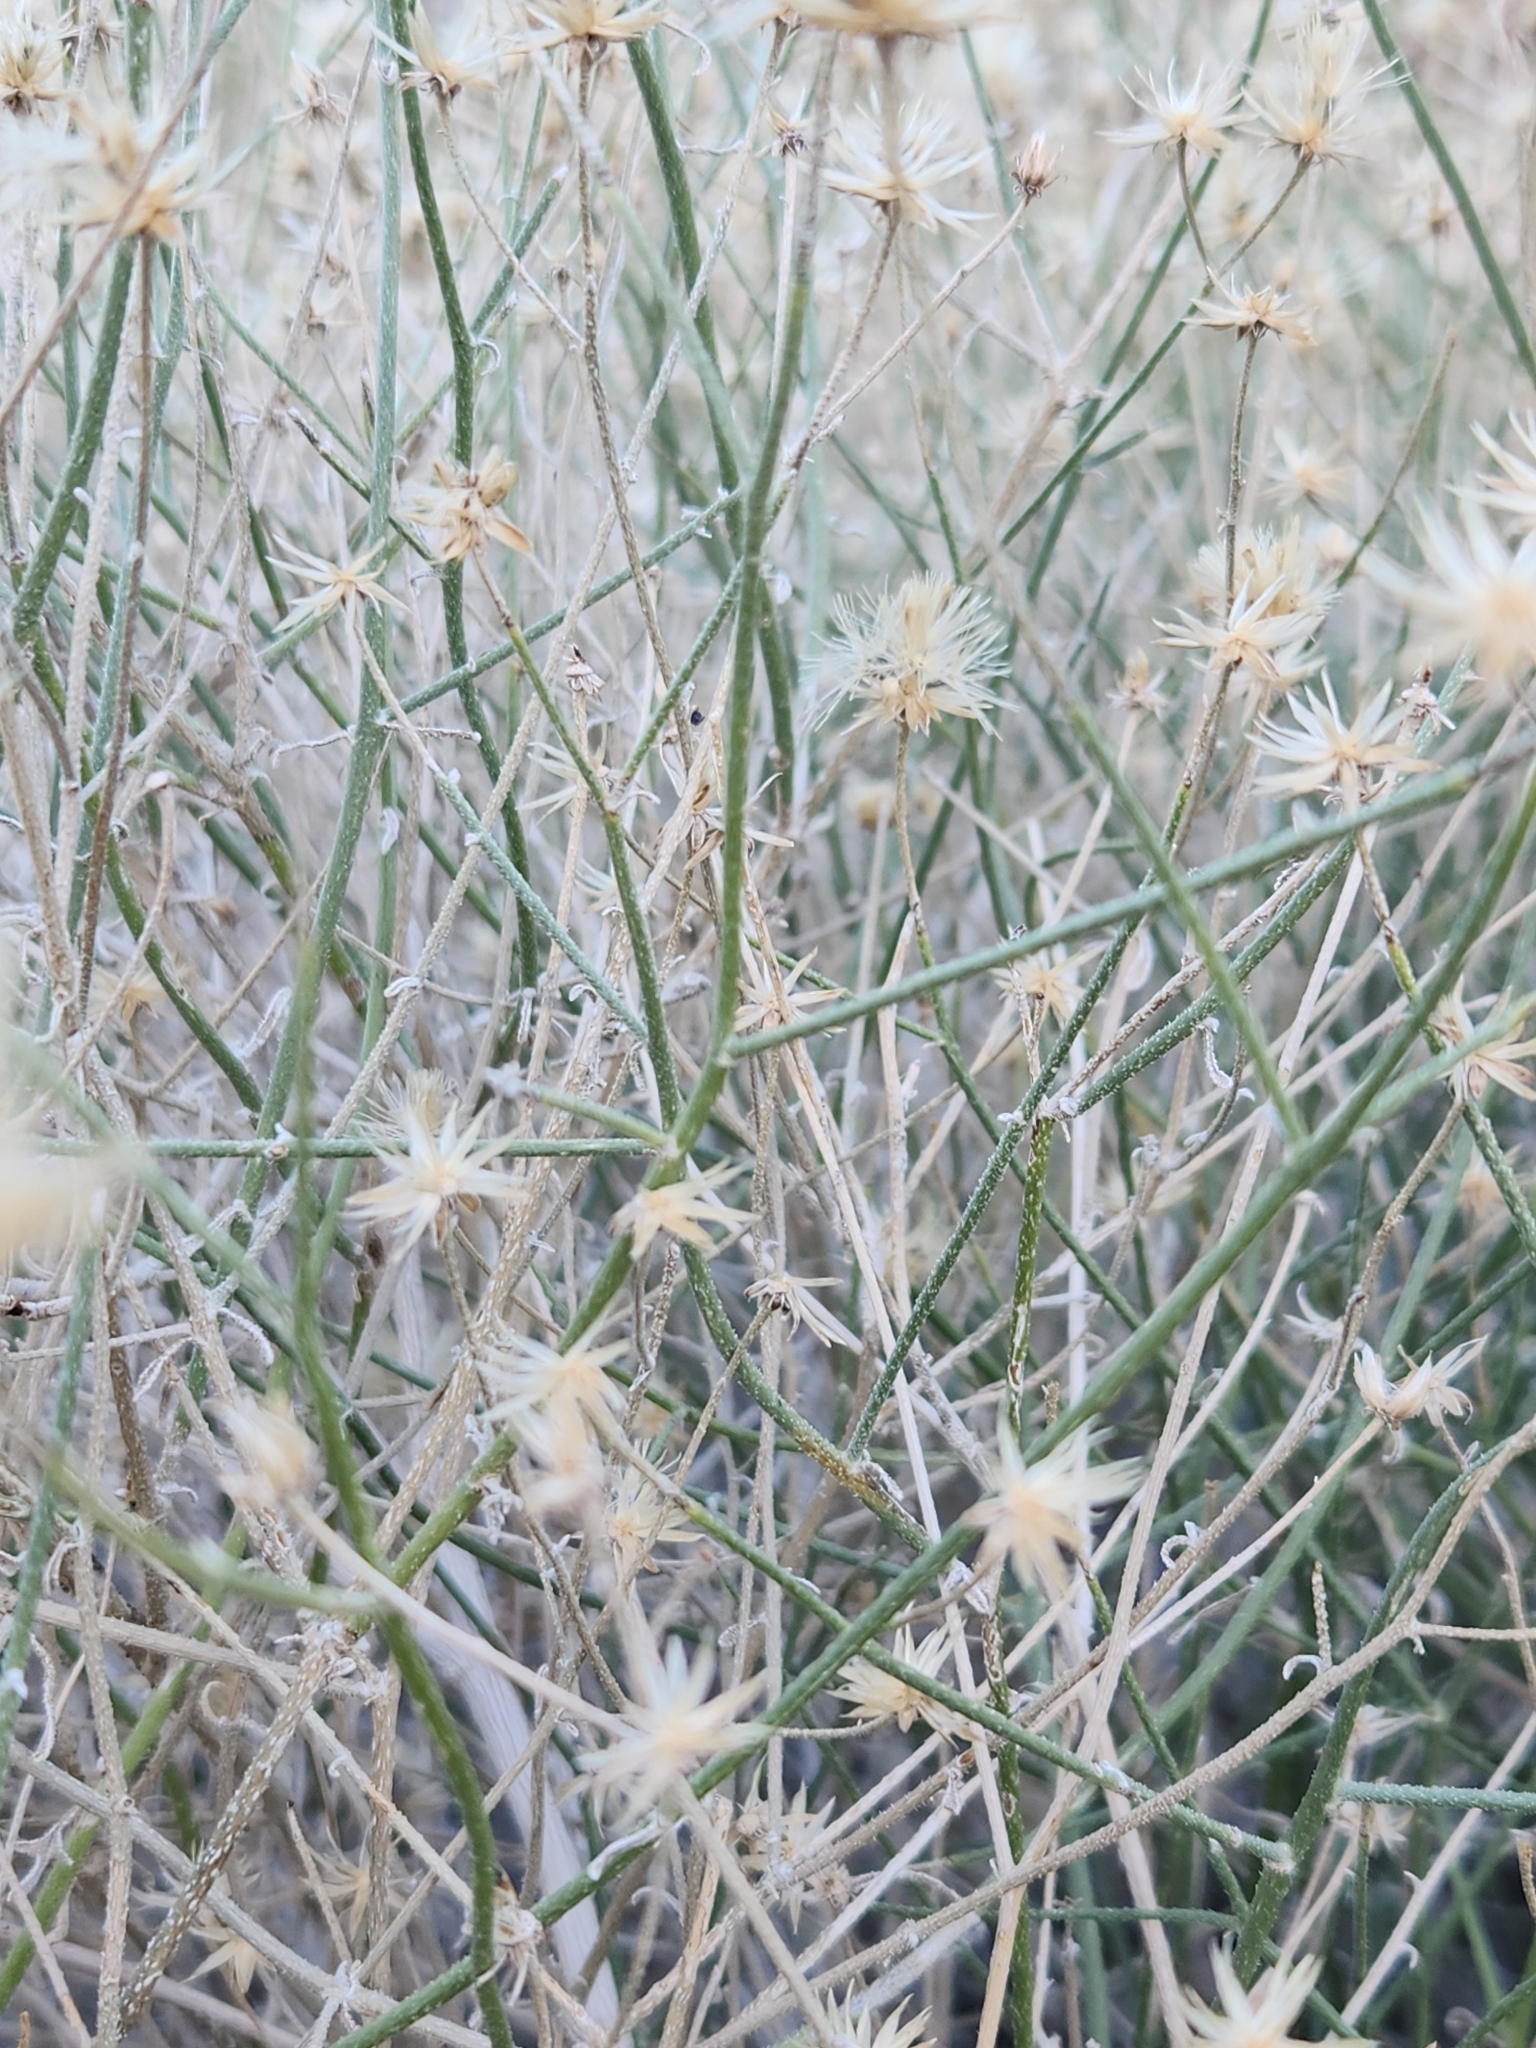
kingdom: Plantae
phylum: Tracheophyta
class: Magnoliopsida
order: Asterales
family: Asteraceae
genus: Bebbia
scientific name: Bebbia juncea
